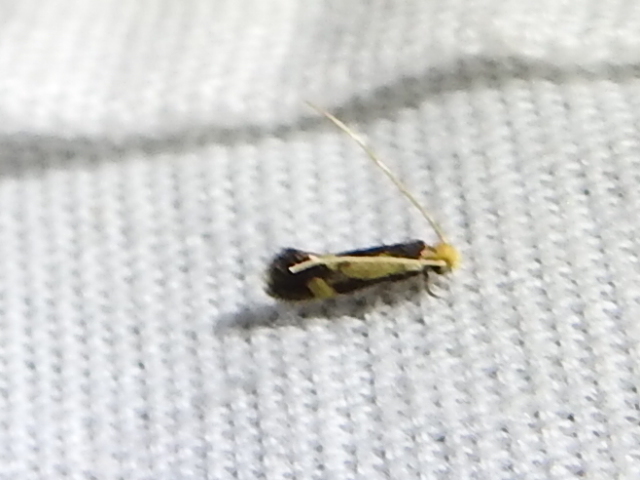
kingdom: Animalia
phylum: Arthropoda
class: Insecta
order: Lepidoptera
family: Meessiidae
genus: Isocorypha
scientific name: Isocorypha mediostriatella
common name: Old gold isocorypha moth
